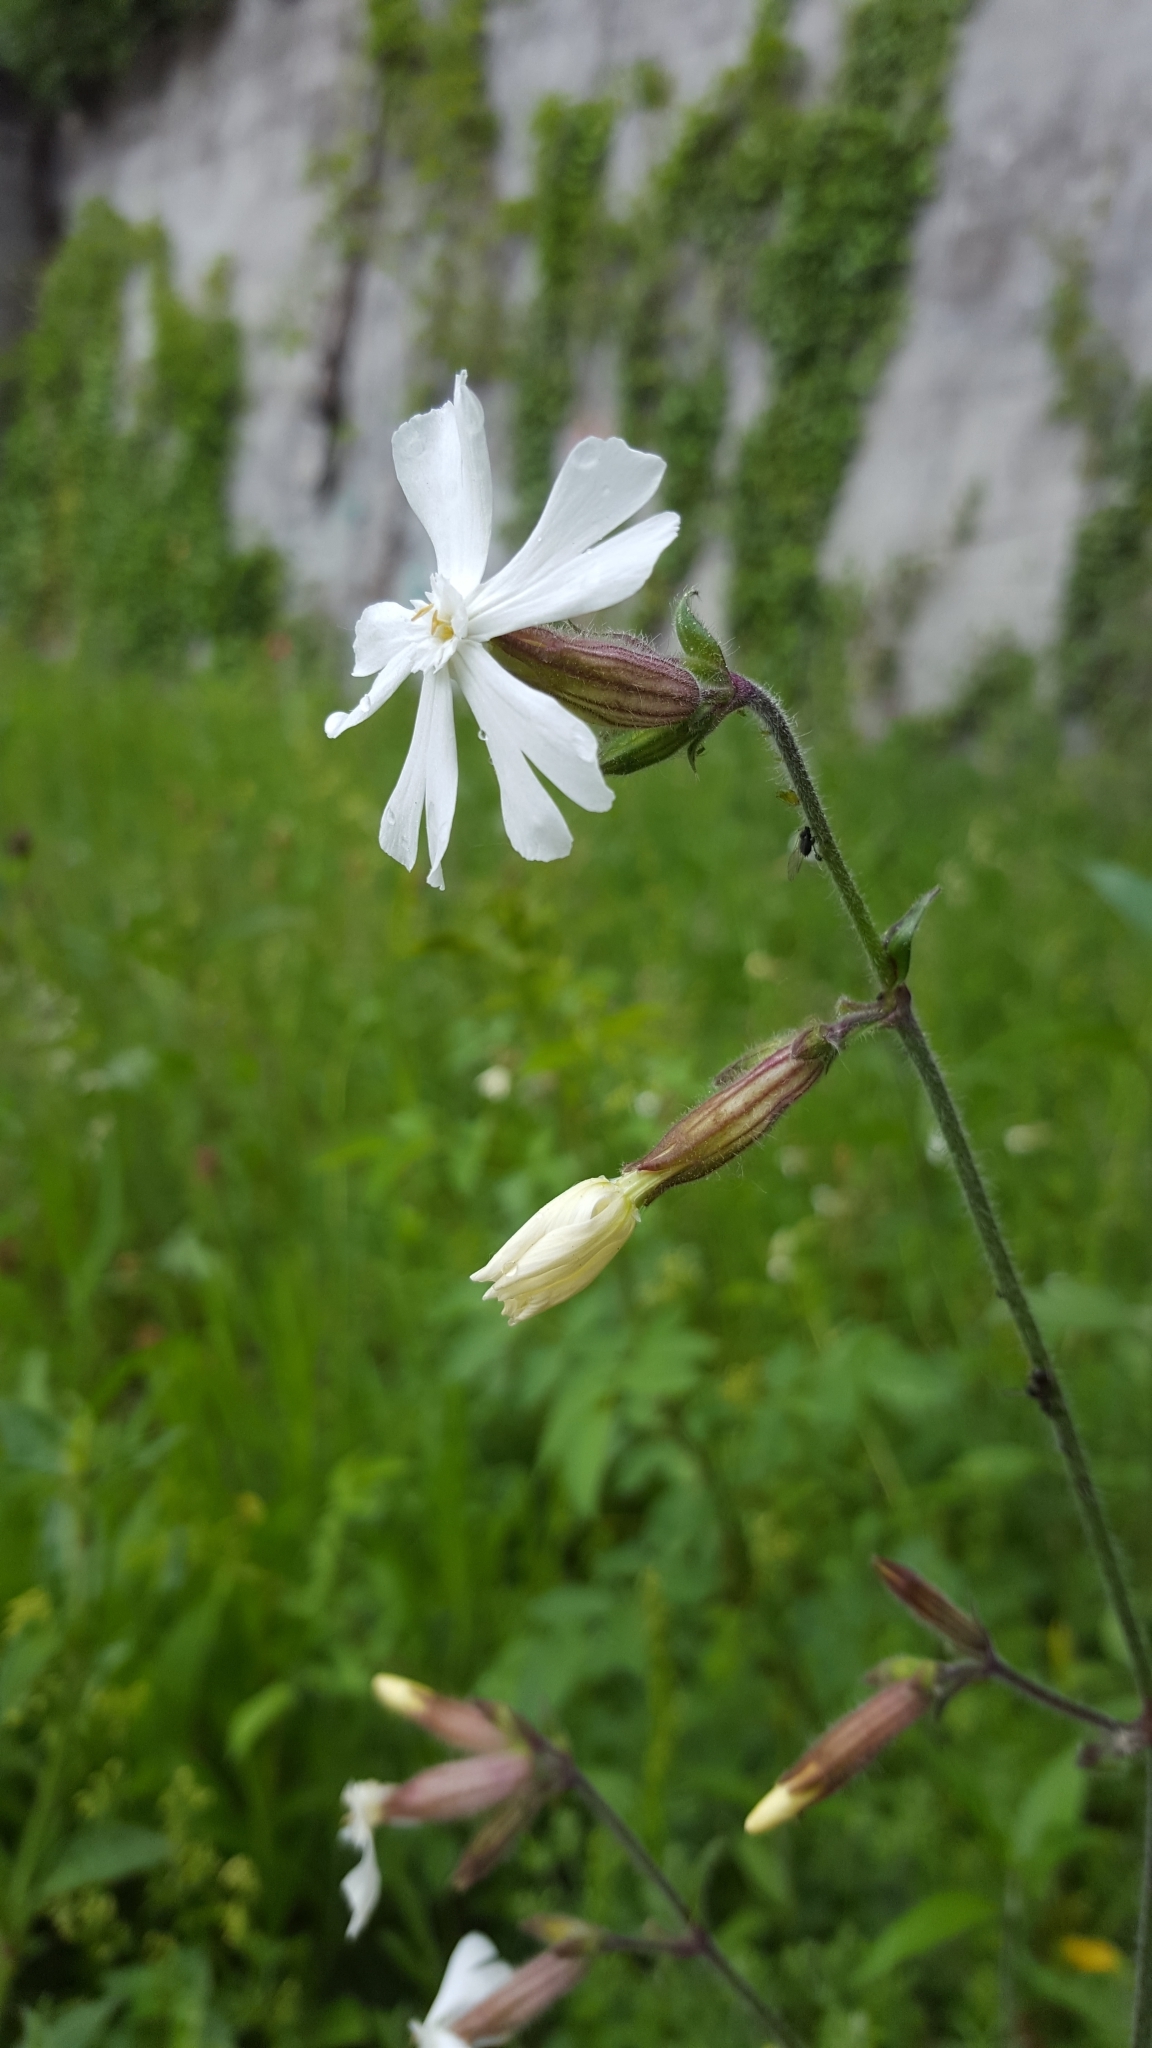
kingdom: Plantae
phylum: Tracheophyta
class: Magnoliopsida
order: Caryophyllales
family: Caryophyllaceae
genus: Silene
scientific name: Silene latifolia
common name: White campion
